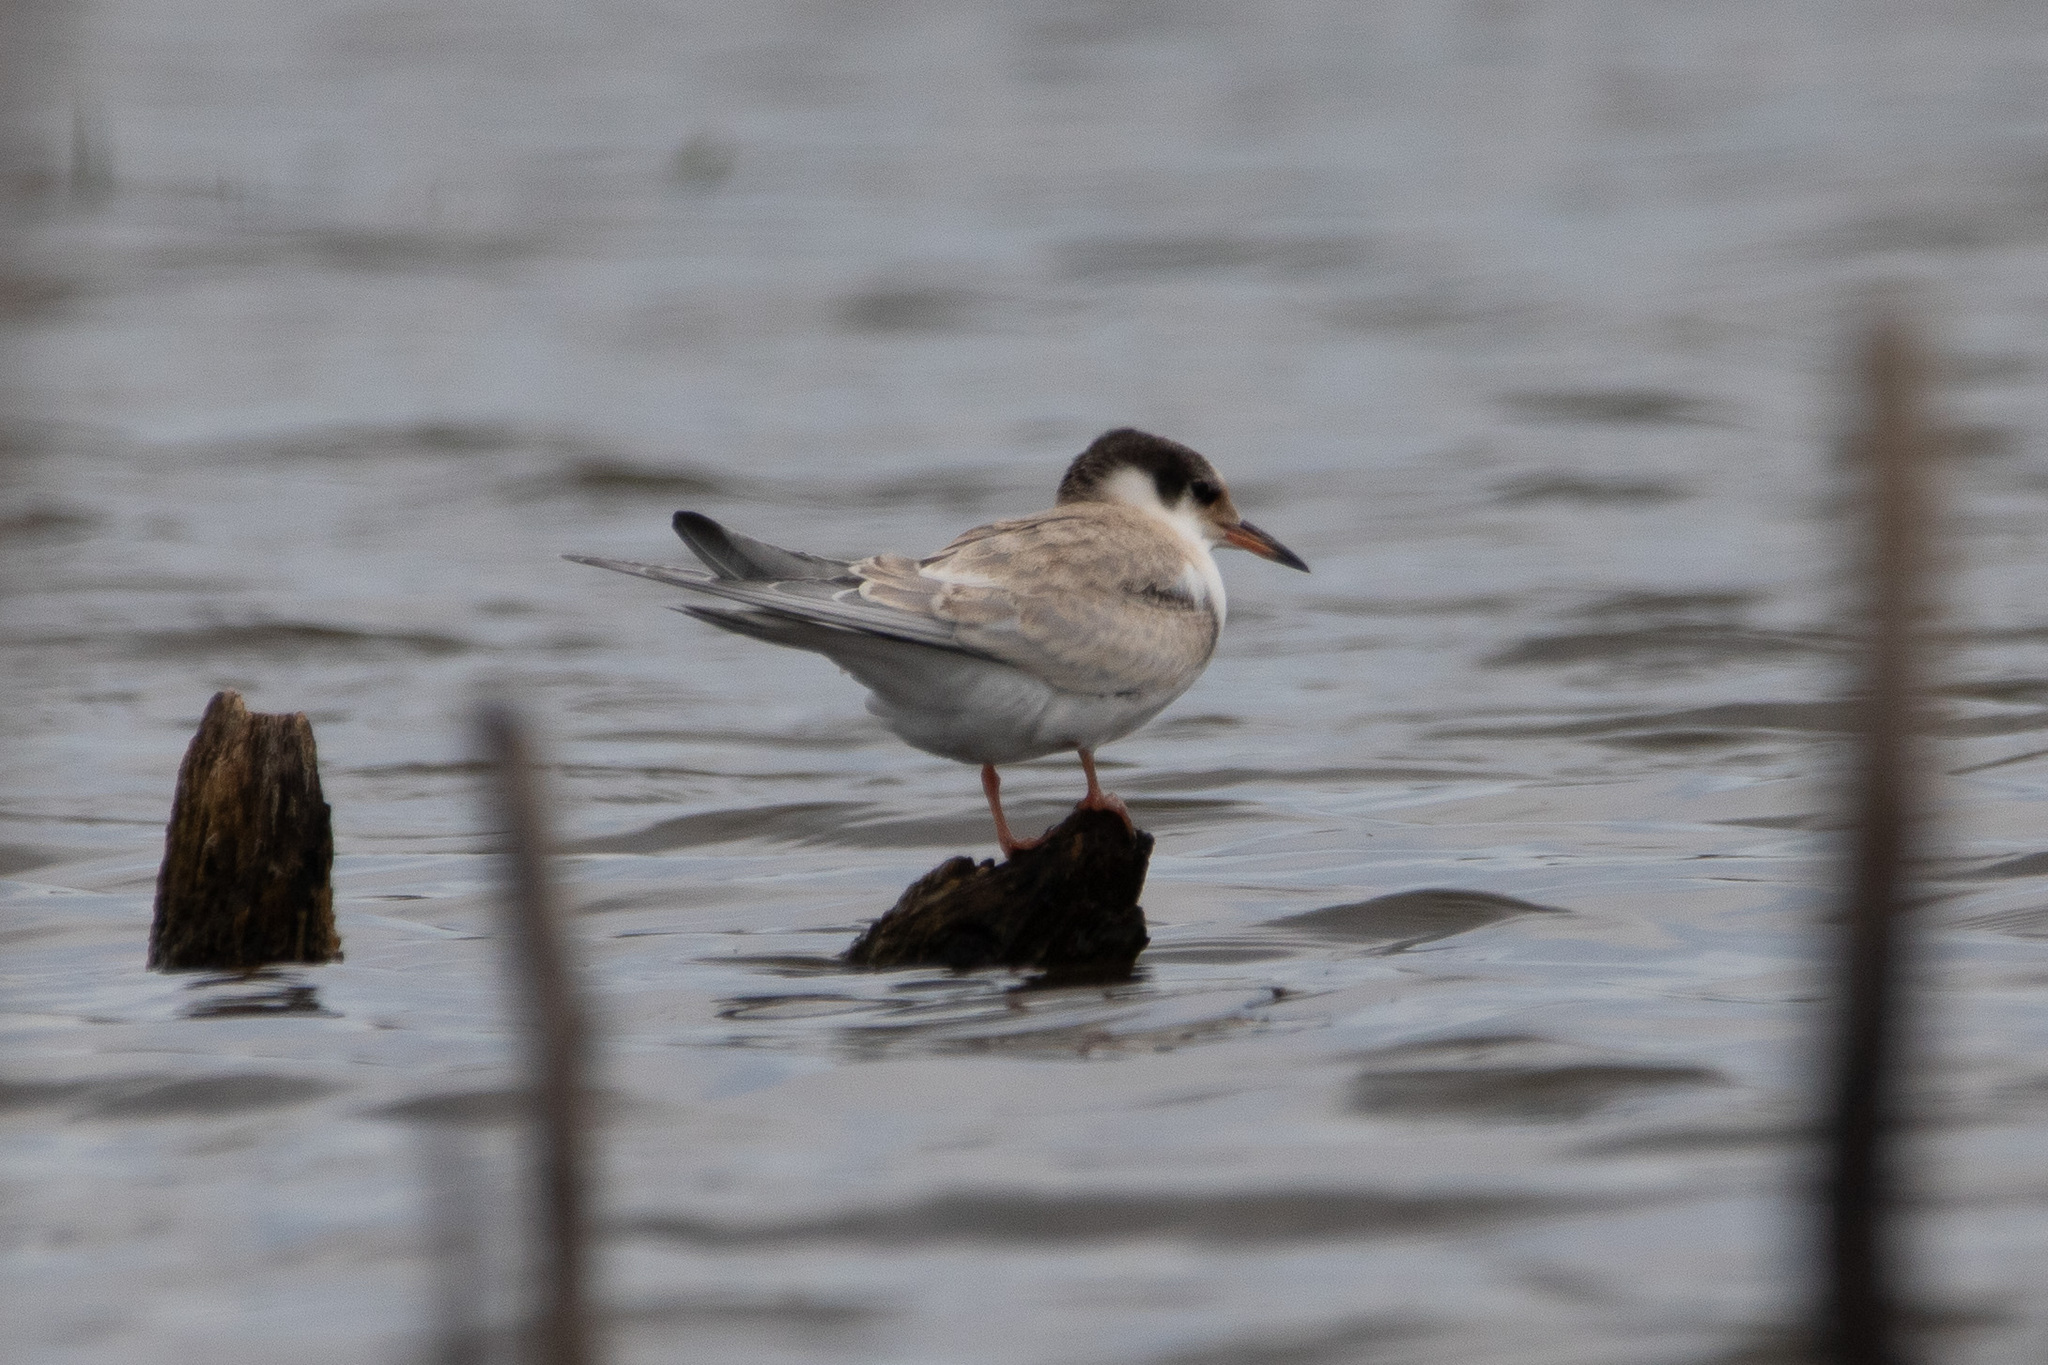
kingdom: Animalia
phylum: Chordata
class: Aves
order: Charadriiformes
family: Laridae
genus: Sterna
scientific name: Sterna hirundo
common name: Common tern
